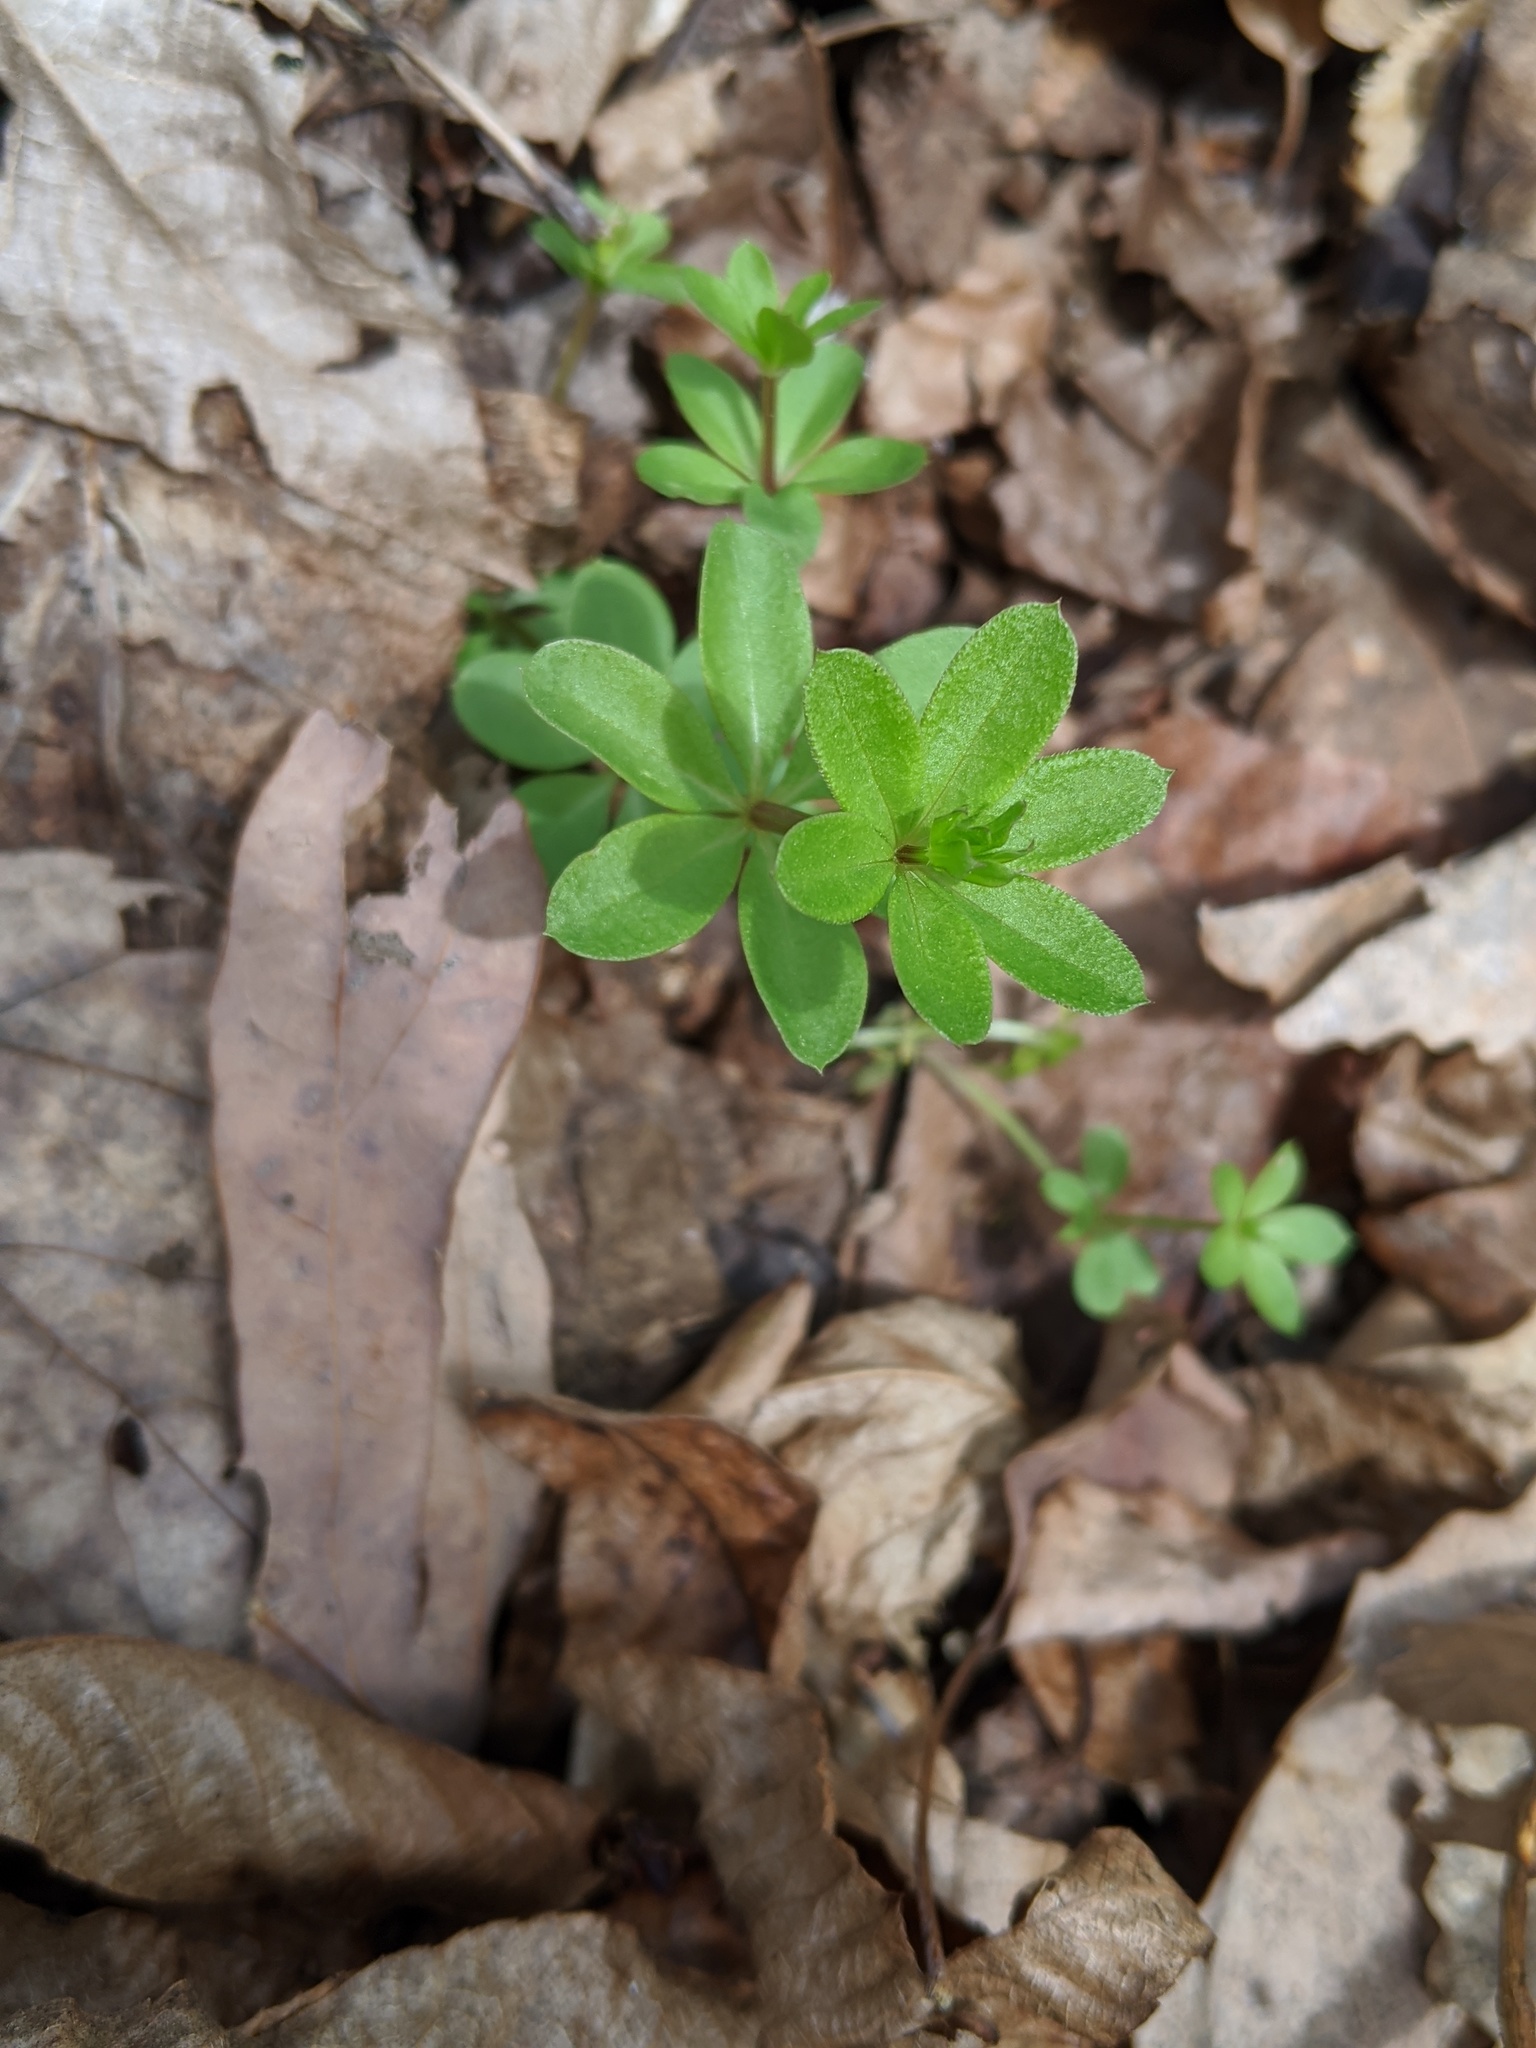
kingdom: Plantae
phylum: Tracheophyta
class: Magnoliopsida
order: Gentianales
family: Rubiaceae
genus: Galium
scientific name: Galium triflorum
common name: Fragrant bedstraw
